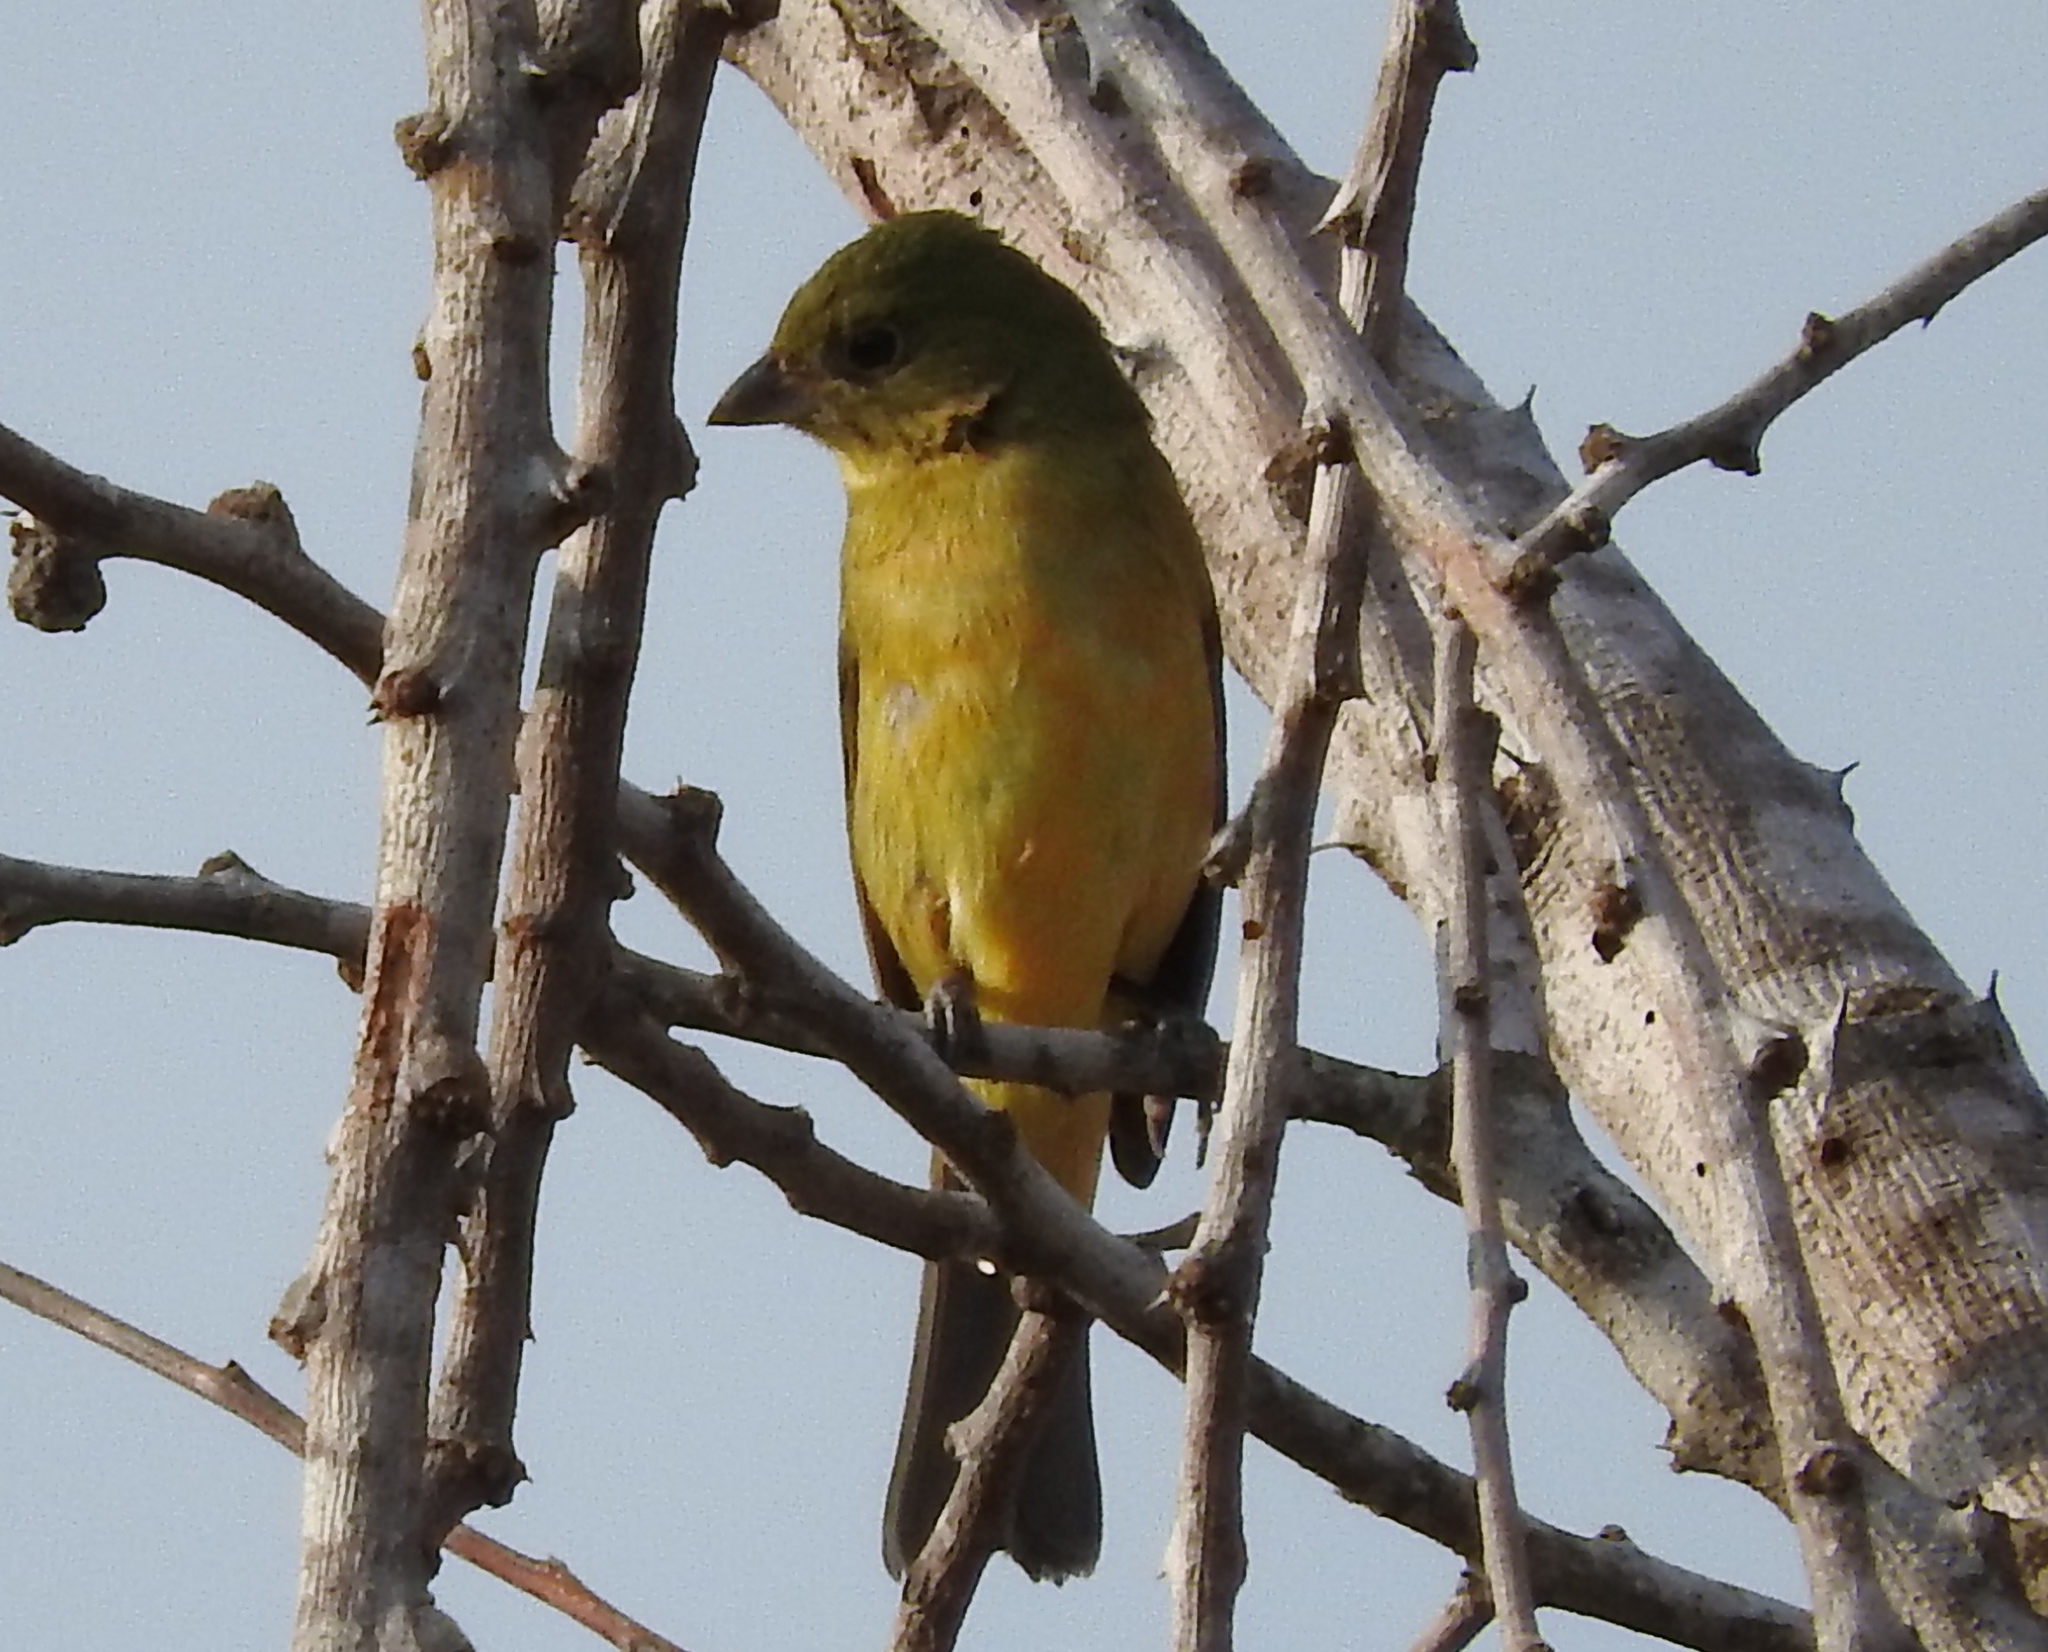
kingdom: Animalia
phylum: Chordata
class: Aves
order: Passeriformes
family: Cardinalidae
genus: Passerina
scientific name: Passerina ciris
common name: Painted bunting
